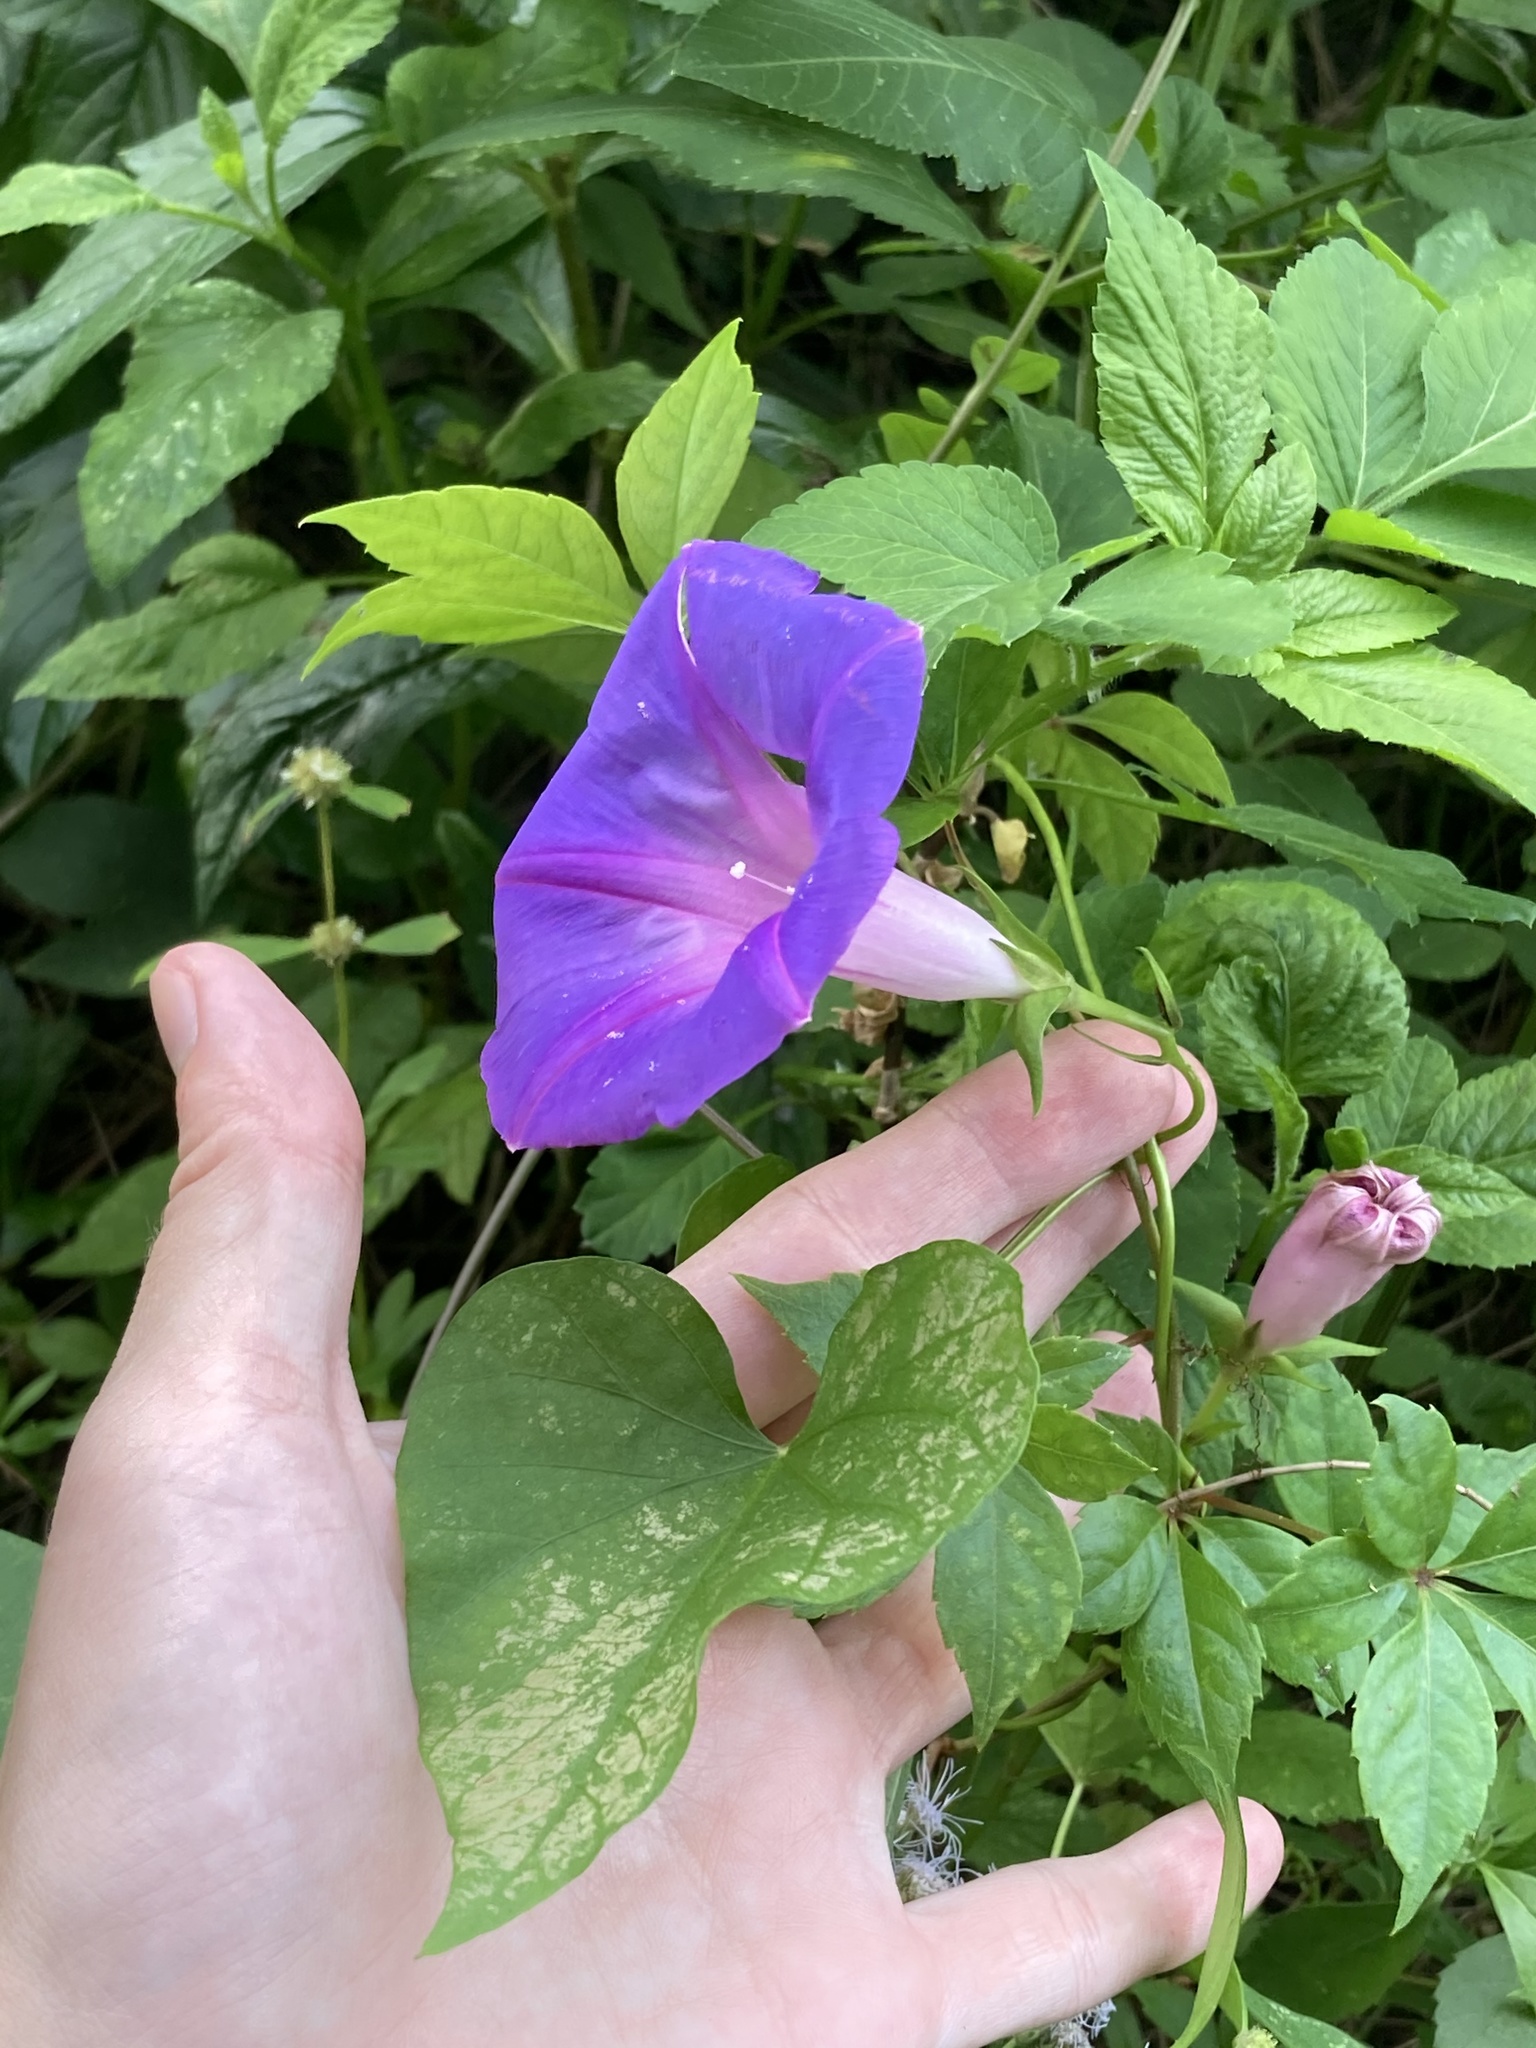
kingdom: Plantae
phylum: Tracheophyta
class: Magnoliopsida
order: Solanales
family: Convolvulaceae
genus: Ipomoea
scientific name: Ipomoea indica
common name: Blue dawnflower
